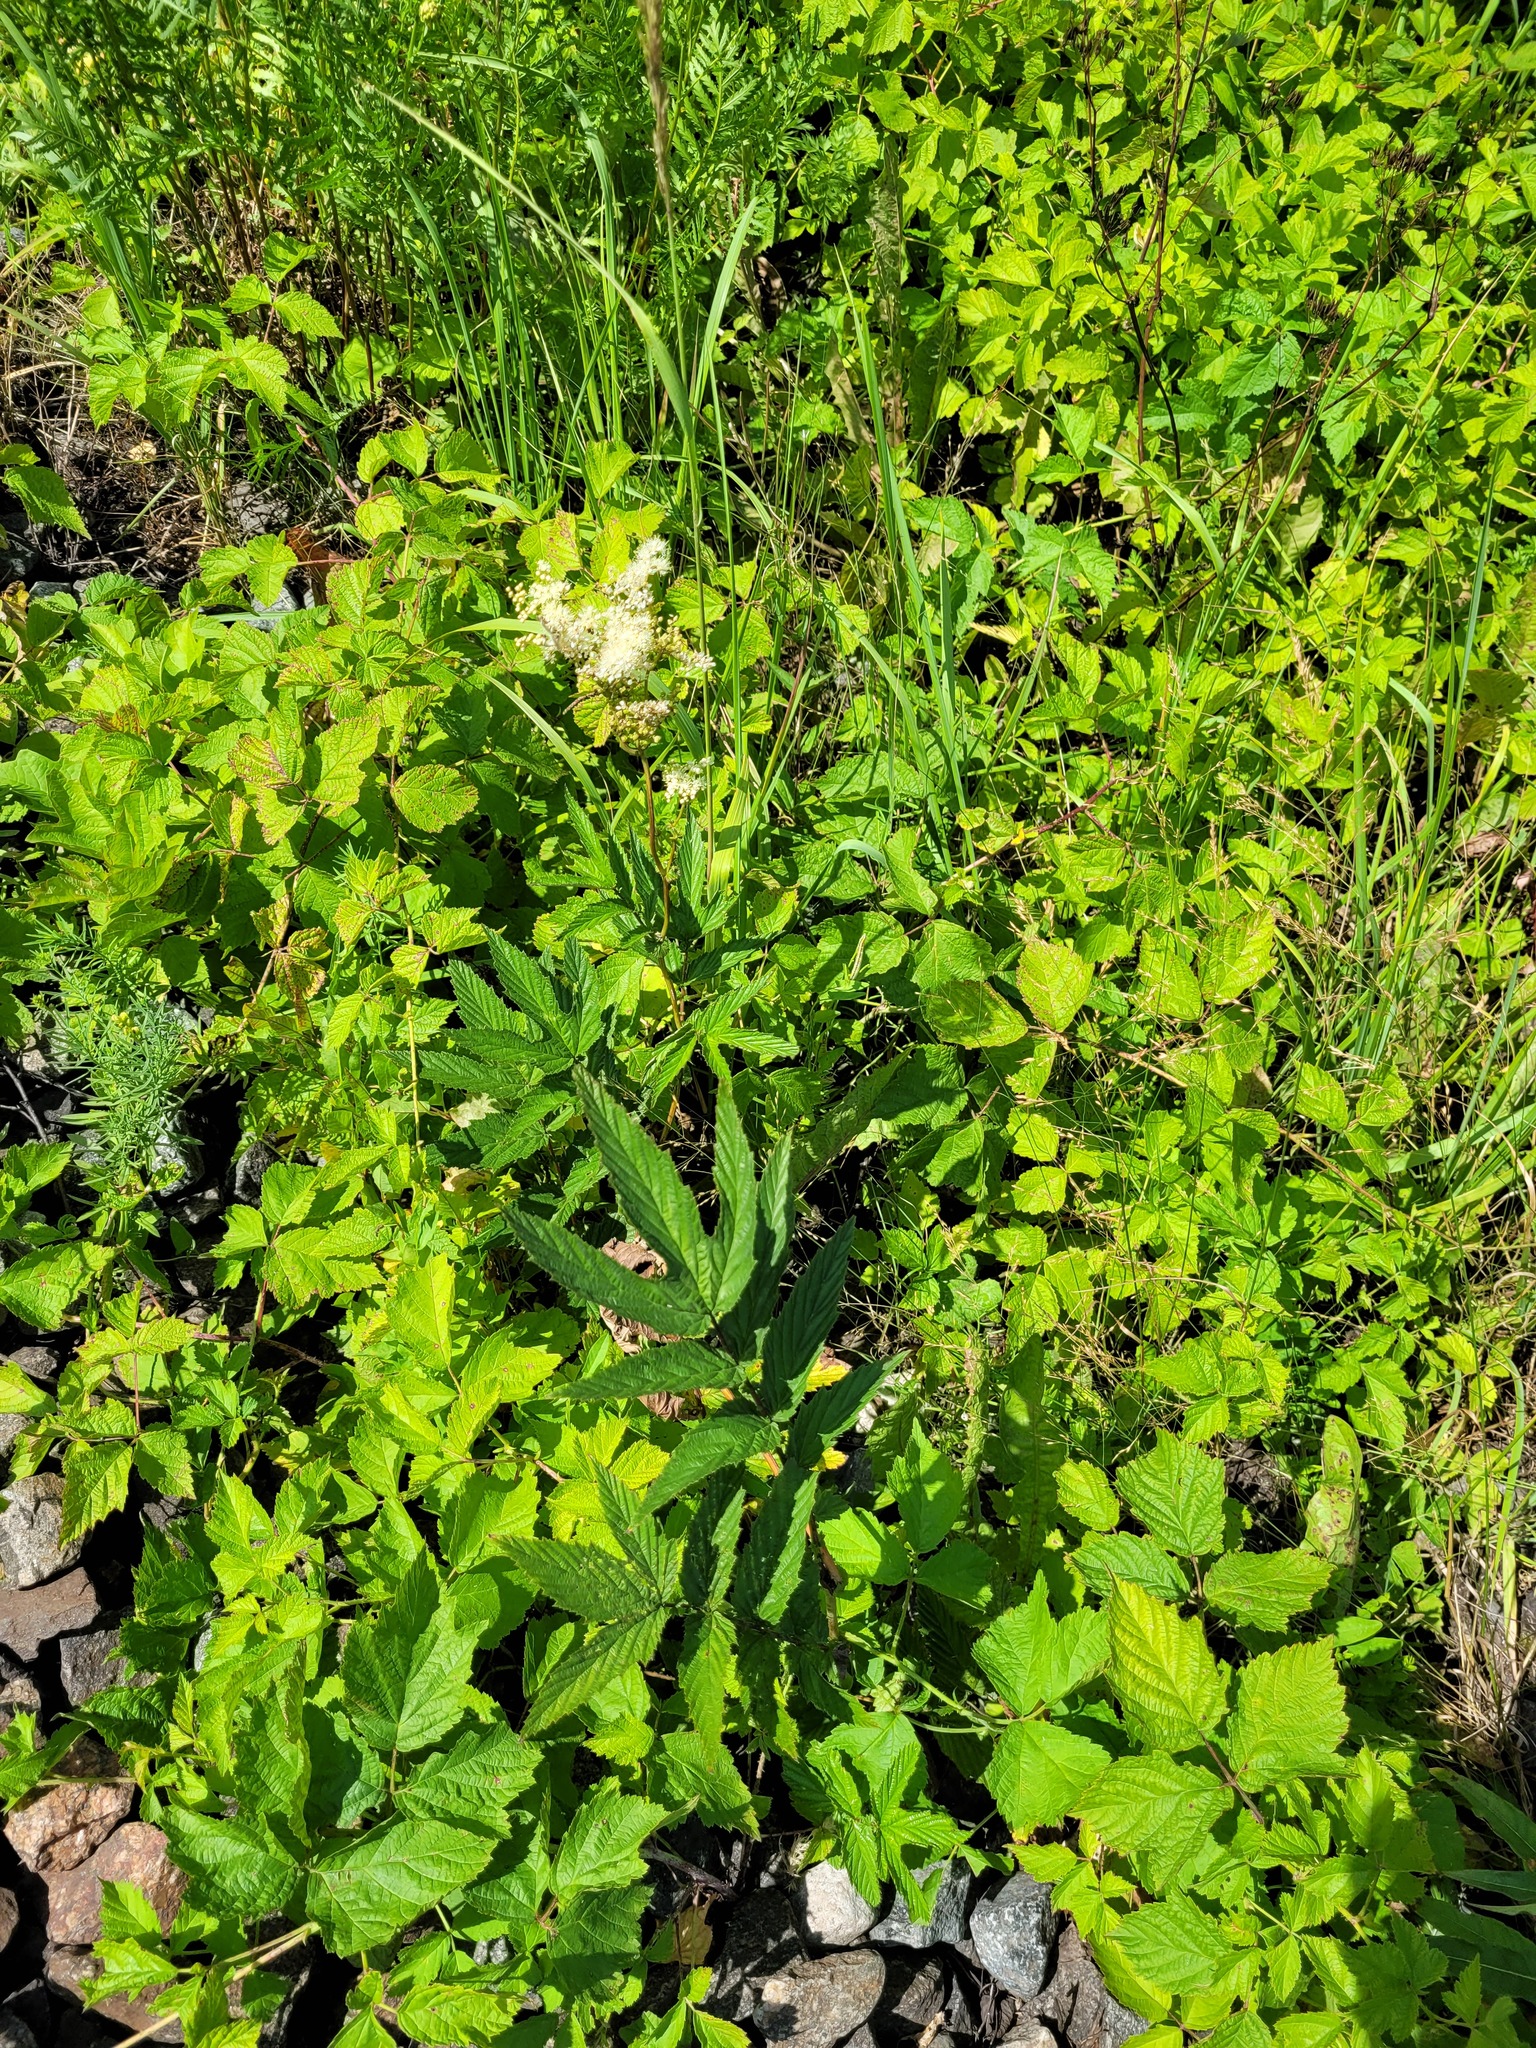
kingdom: Plantae
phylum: Tracheophyta
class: Magnoliopsida
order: Rosales
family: Rosaceae
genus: Filipendula
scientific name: Filipendula ulmaria
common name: Meadowsweet
